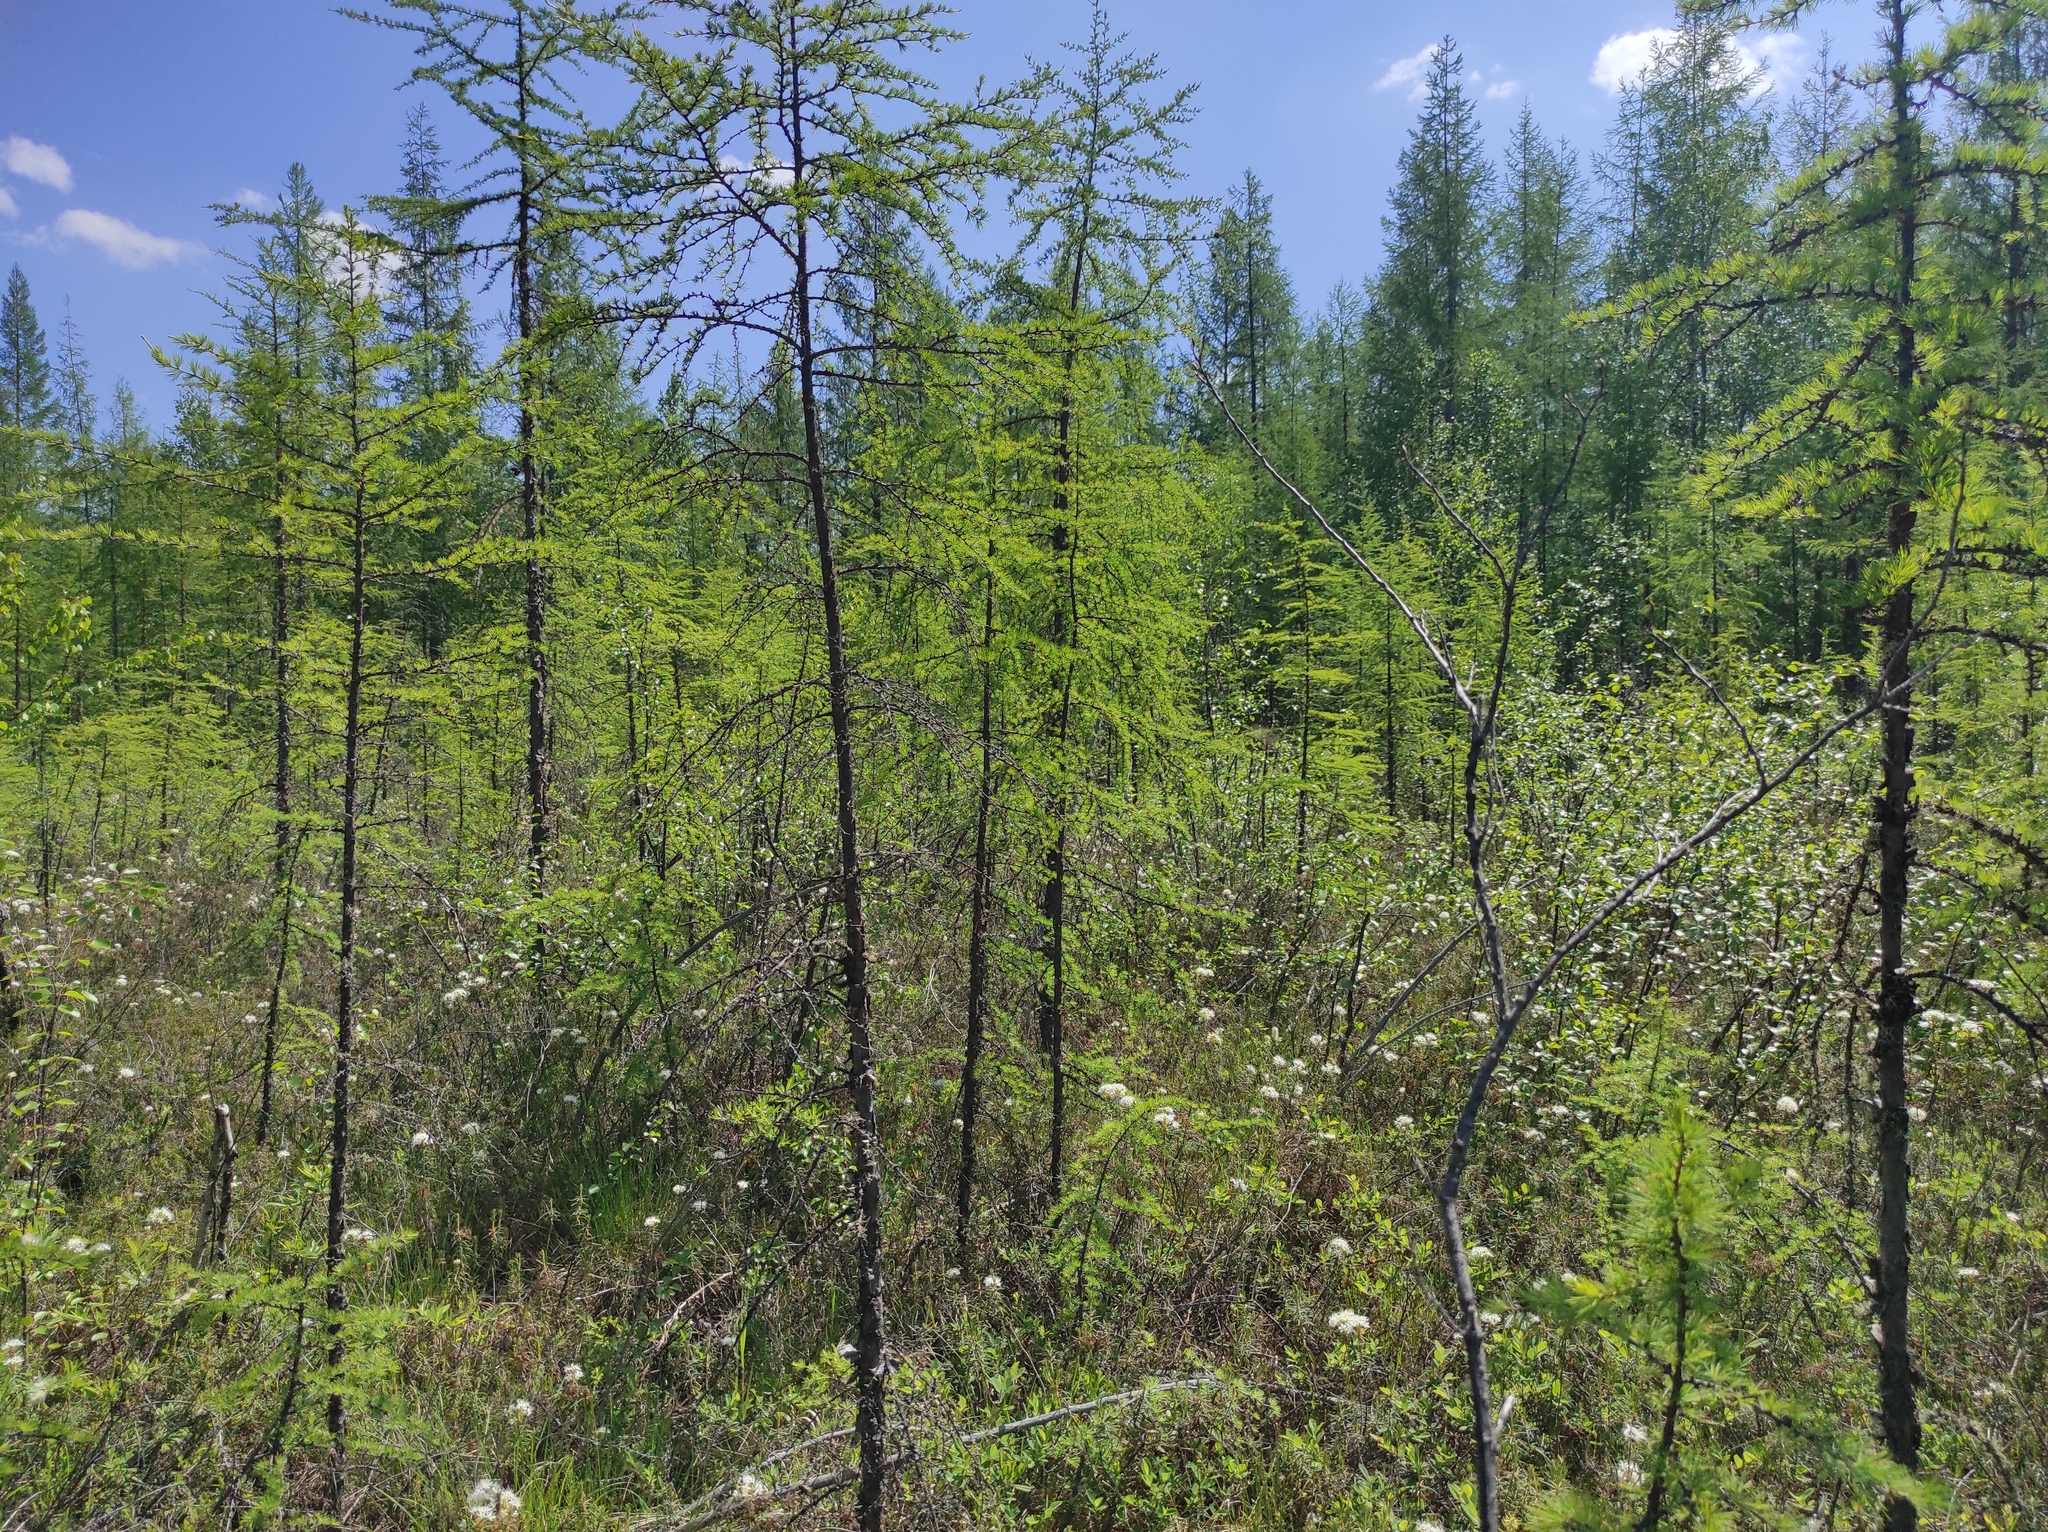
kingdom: Plantae
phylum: Tracheophyta
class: Pinopsida
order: Pinales
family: Pinaceae
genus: Larix
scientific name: Larix gmelinii
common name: Dahurian larch
